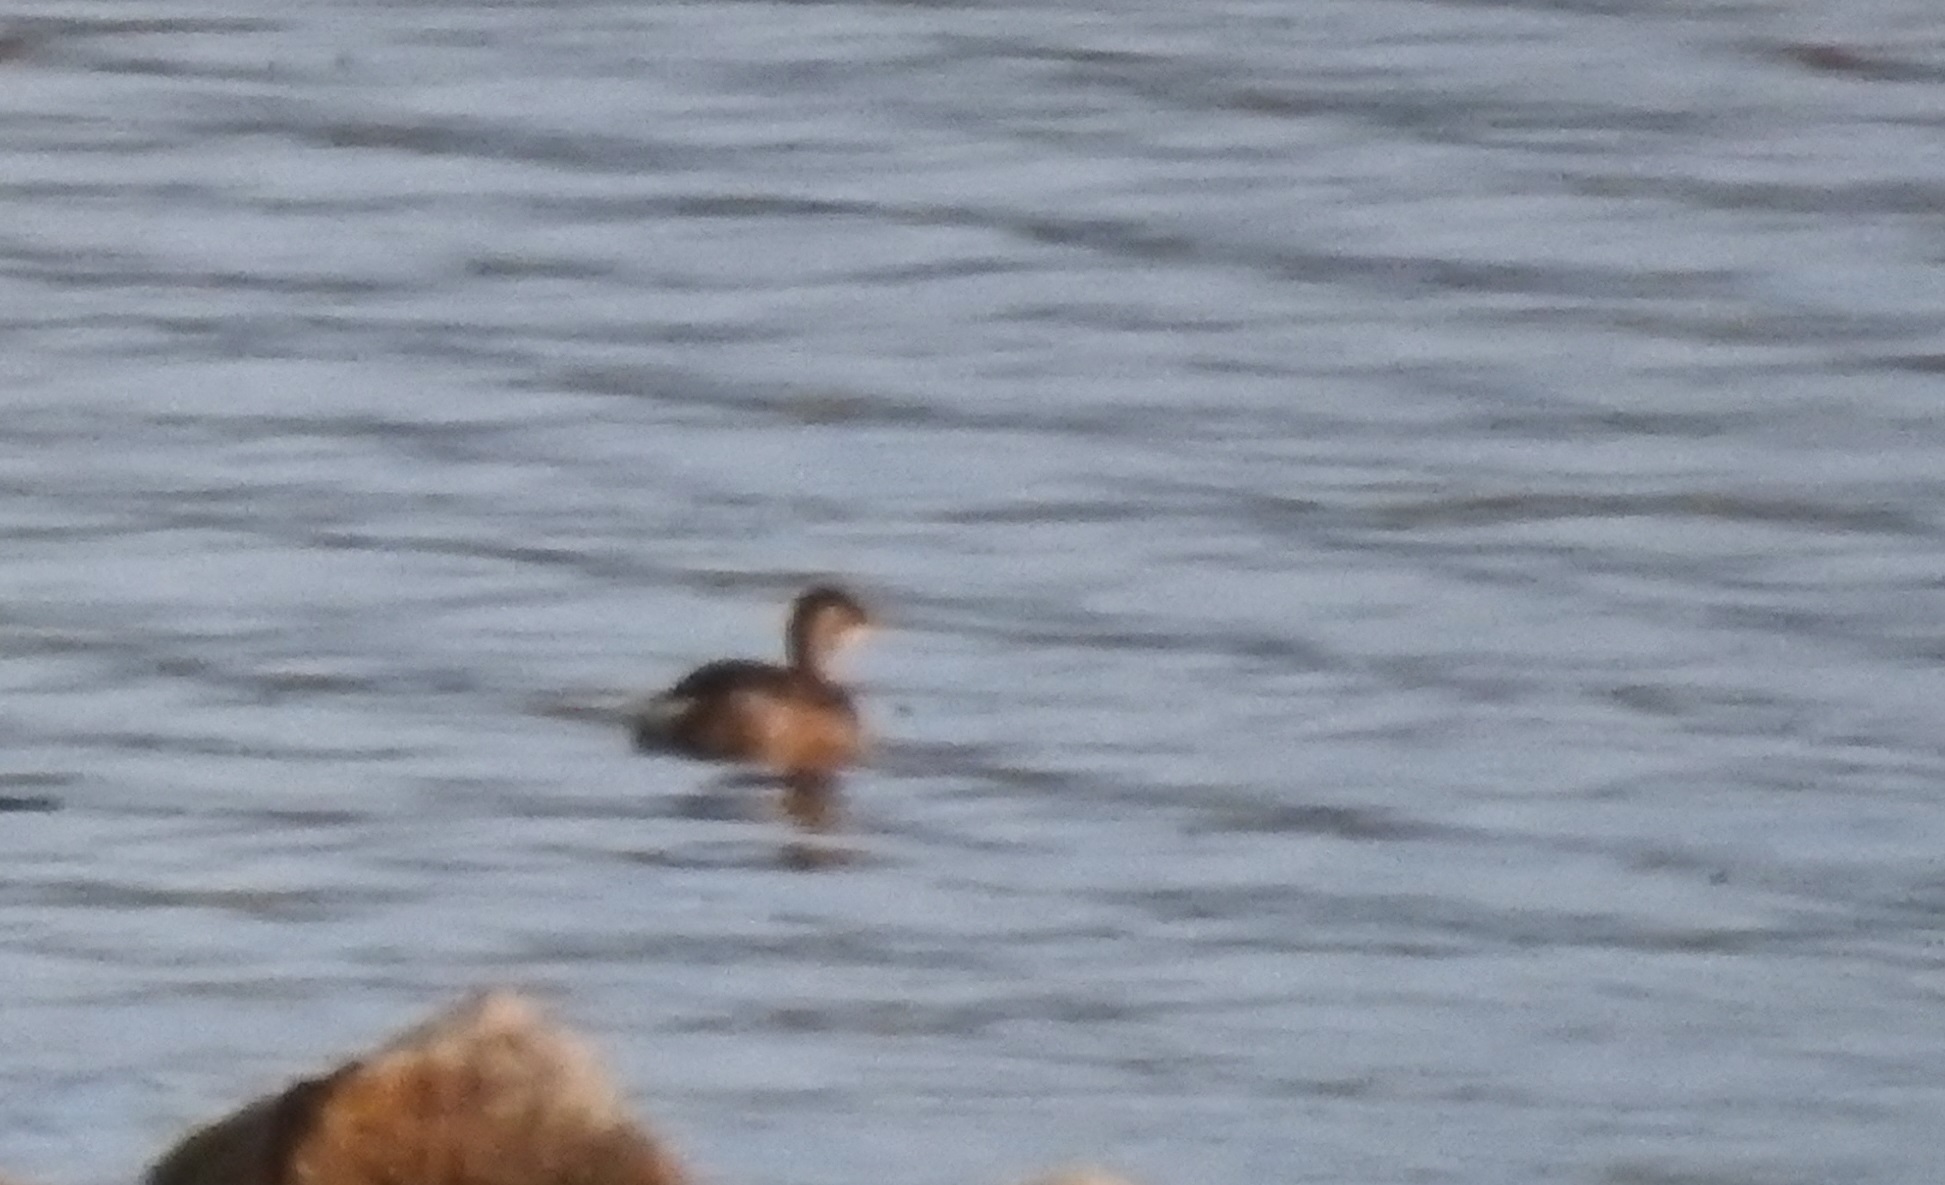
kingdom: Animalia
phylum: Chordata
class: Aves
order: Podicipediformes
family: Podicipedidae
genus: Tachybaptus
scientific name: Tachybaptus ruficollis
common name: Little grebe
